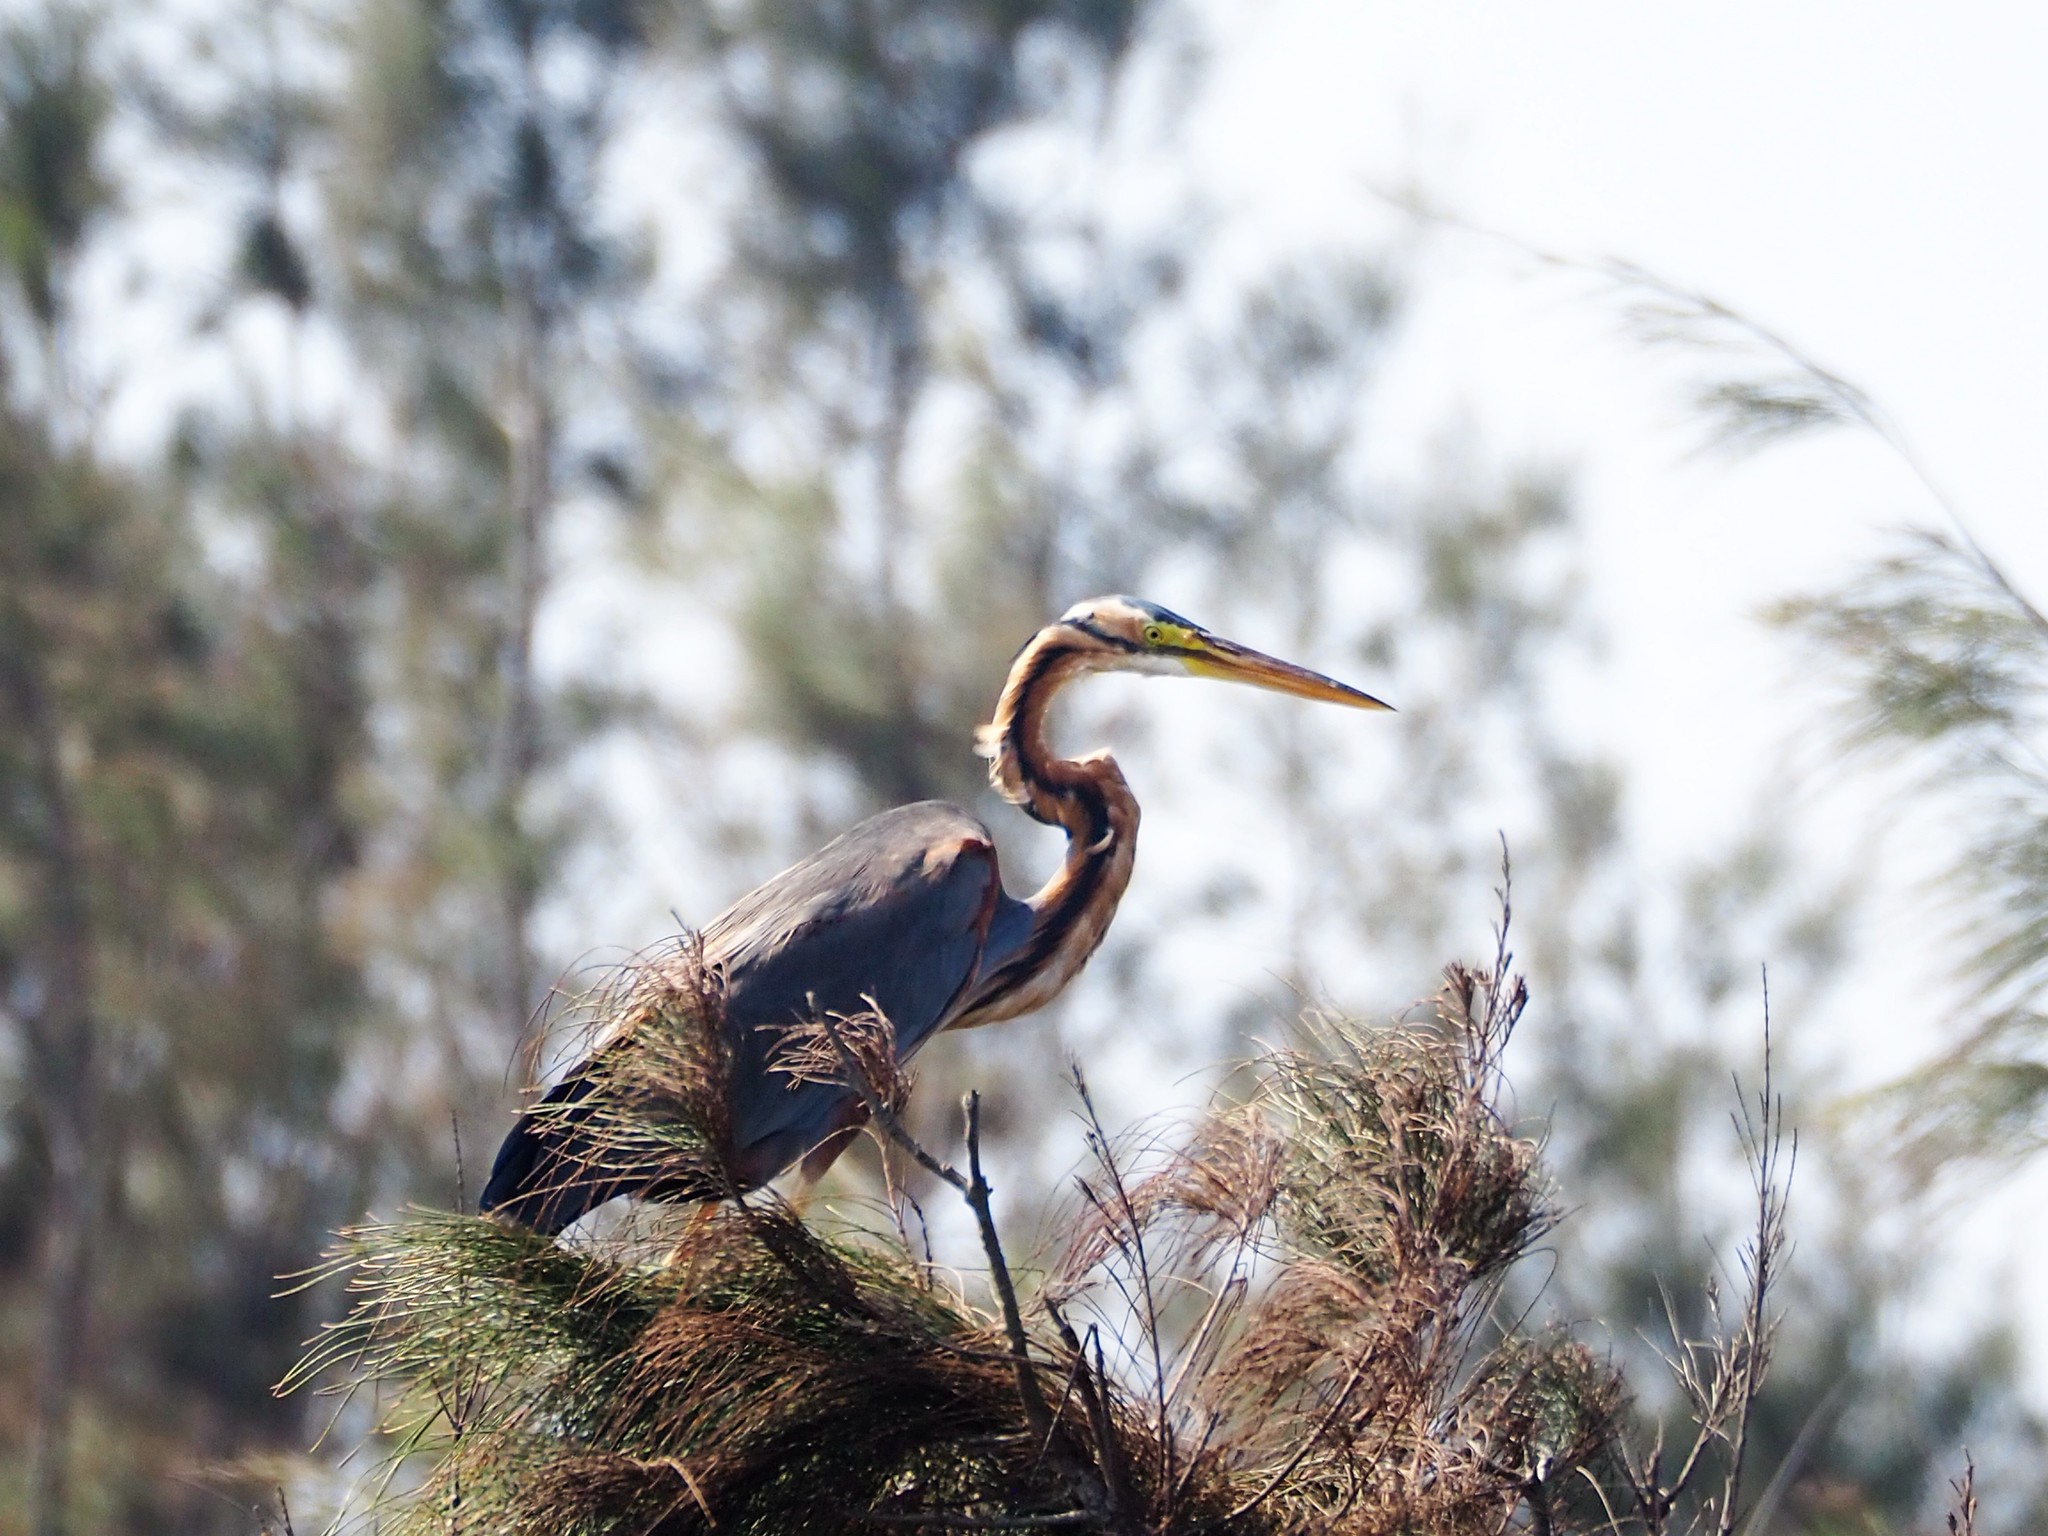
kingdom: Animalia
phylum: Chordata
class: Aves
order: Pelecaniformes
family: Ardeidae
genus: Ardea
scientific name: Ardea purpurea
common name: Purple heron
